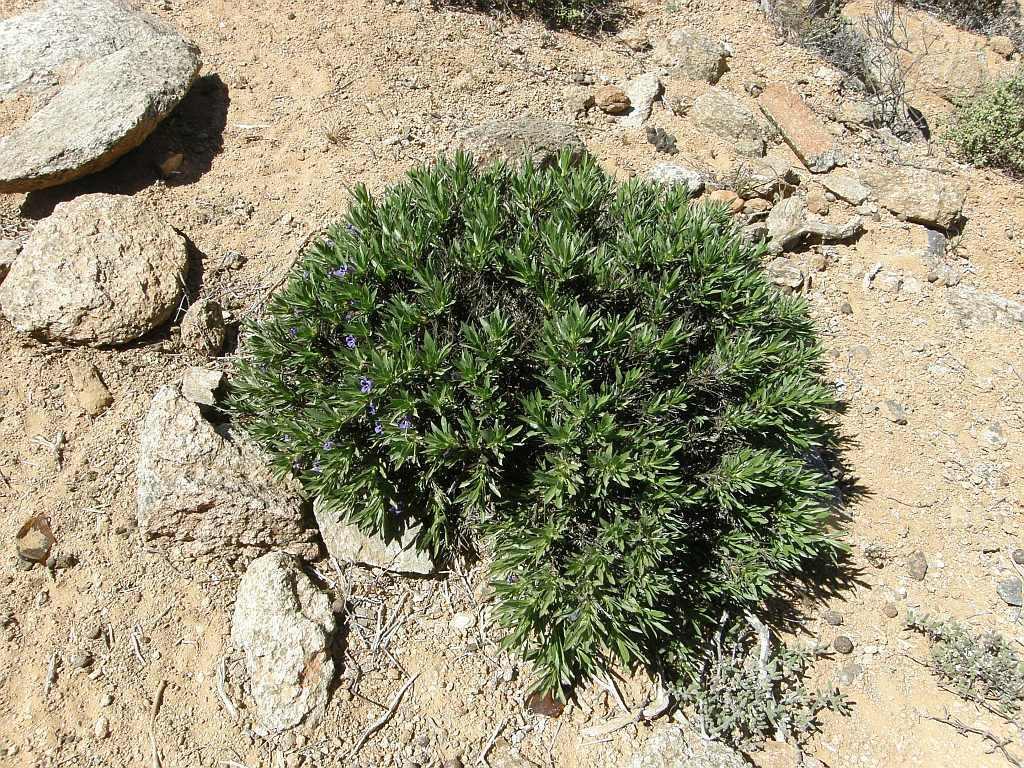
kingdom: Plantae
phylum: Tracheophyta
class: Magnoliopsida
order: Lamiales
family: Scrophulariaceae
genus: Aptosimum
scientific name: Aptosimum indivisum
